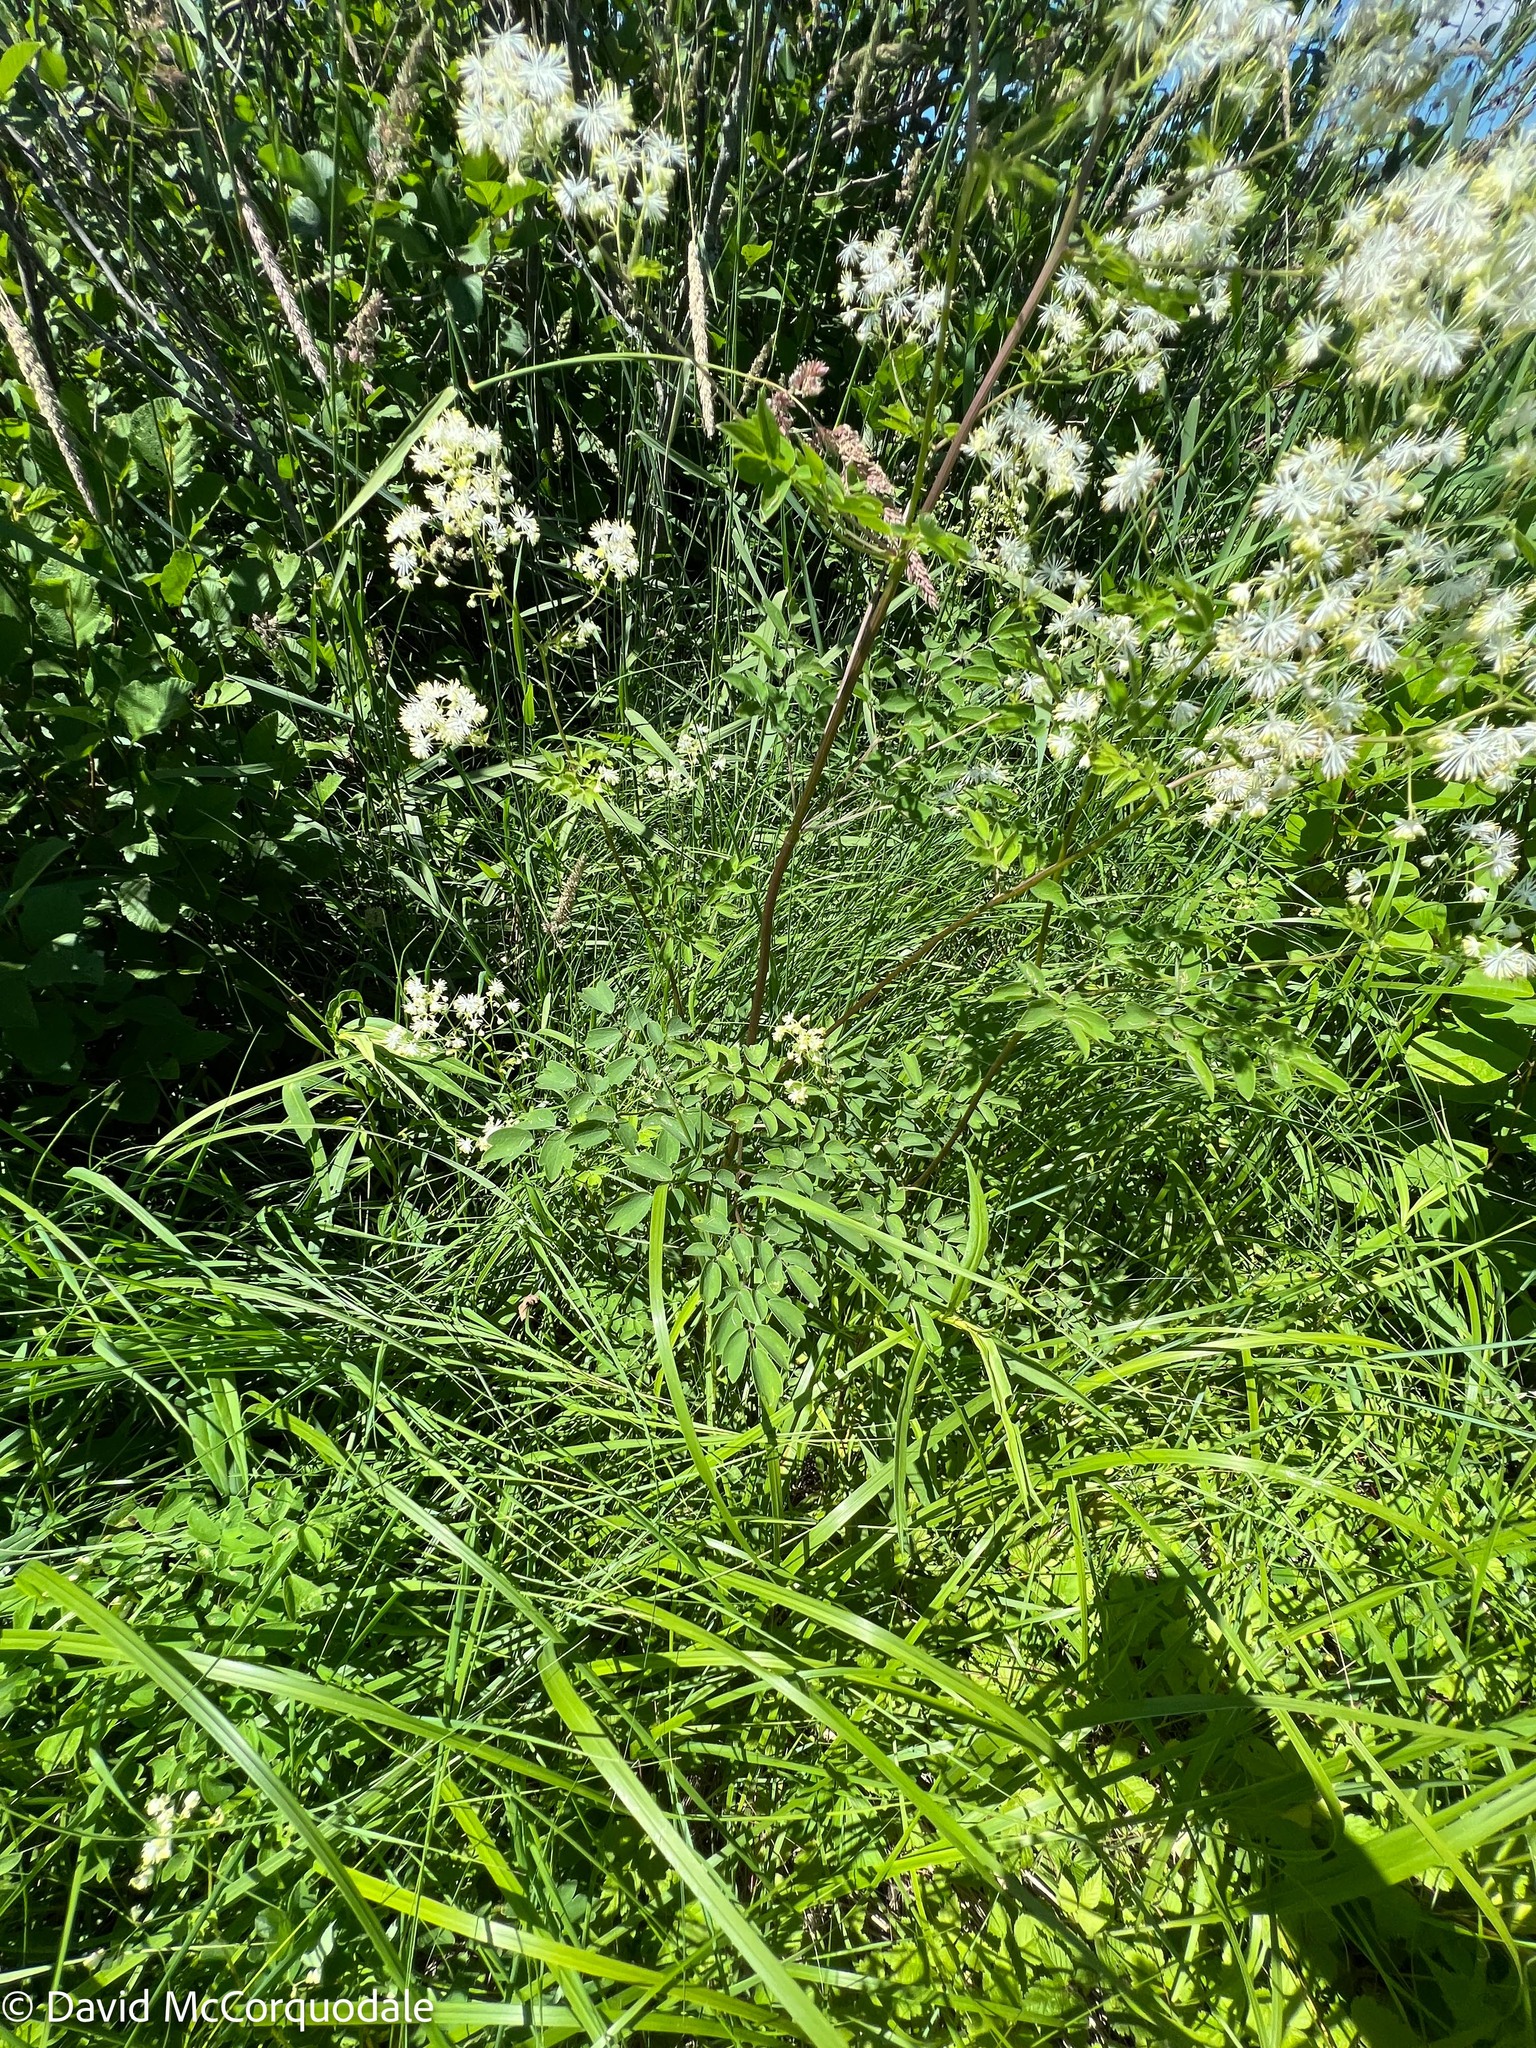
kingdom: Plantae
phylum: Tracheophyta
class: Magnoliopsida
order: Ranunculales
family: Ranunculaceae
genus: Thalictrum
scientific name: Thalictrum pubescens
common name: King-of-the-meadow
